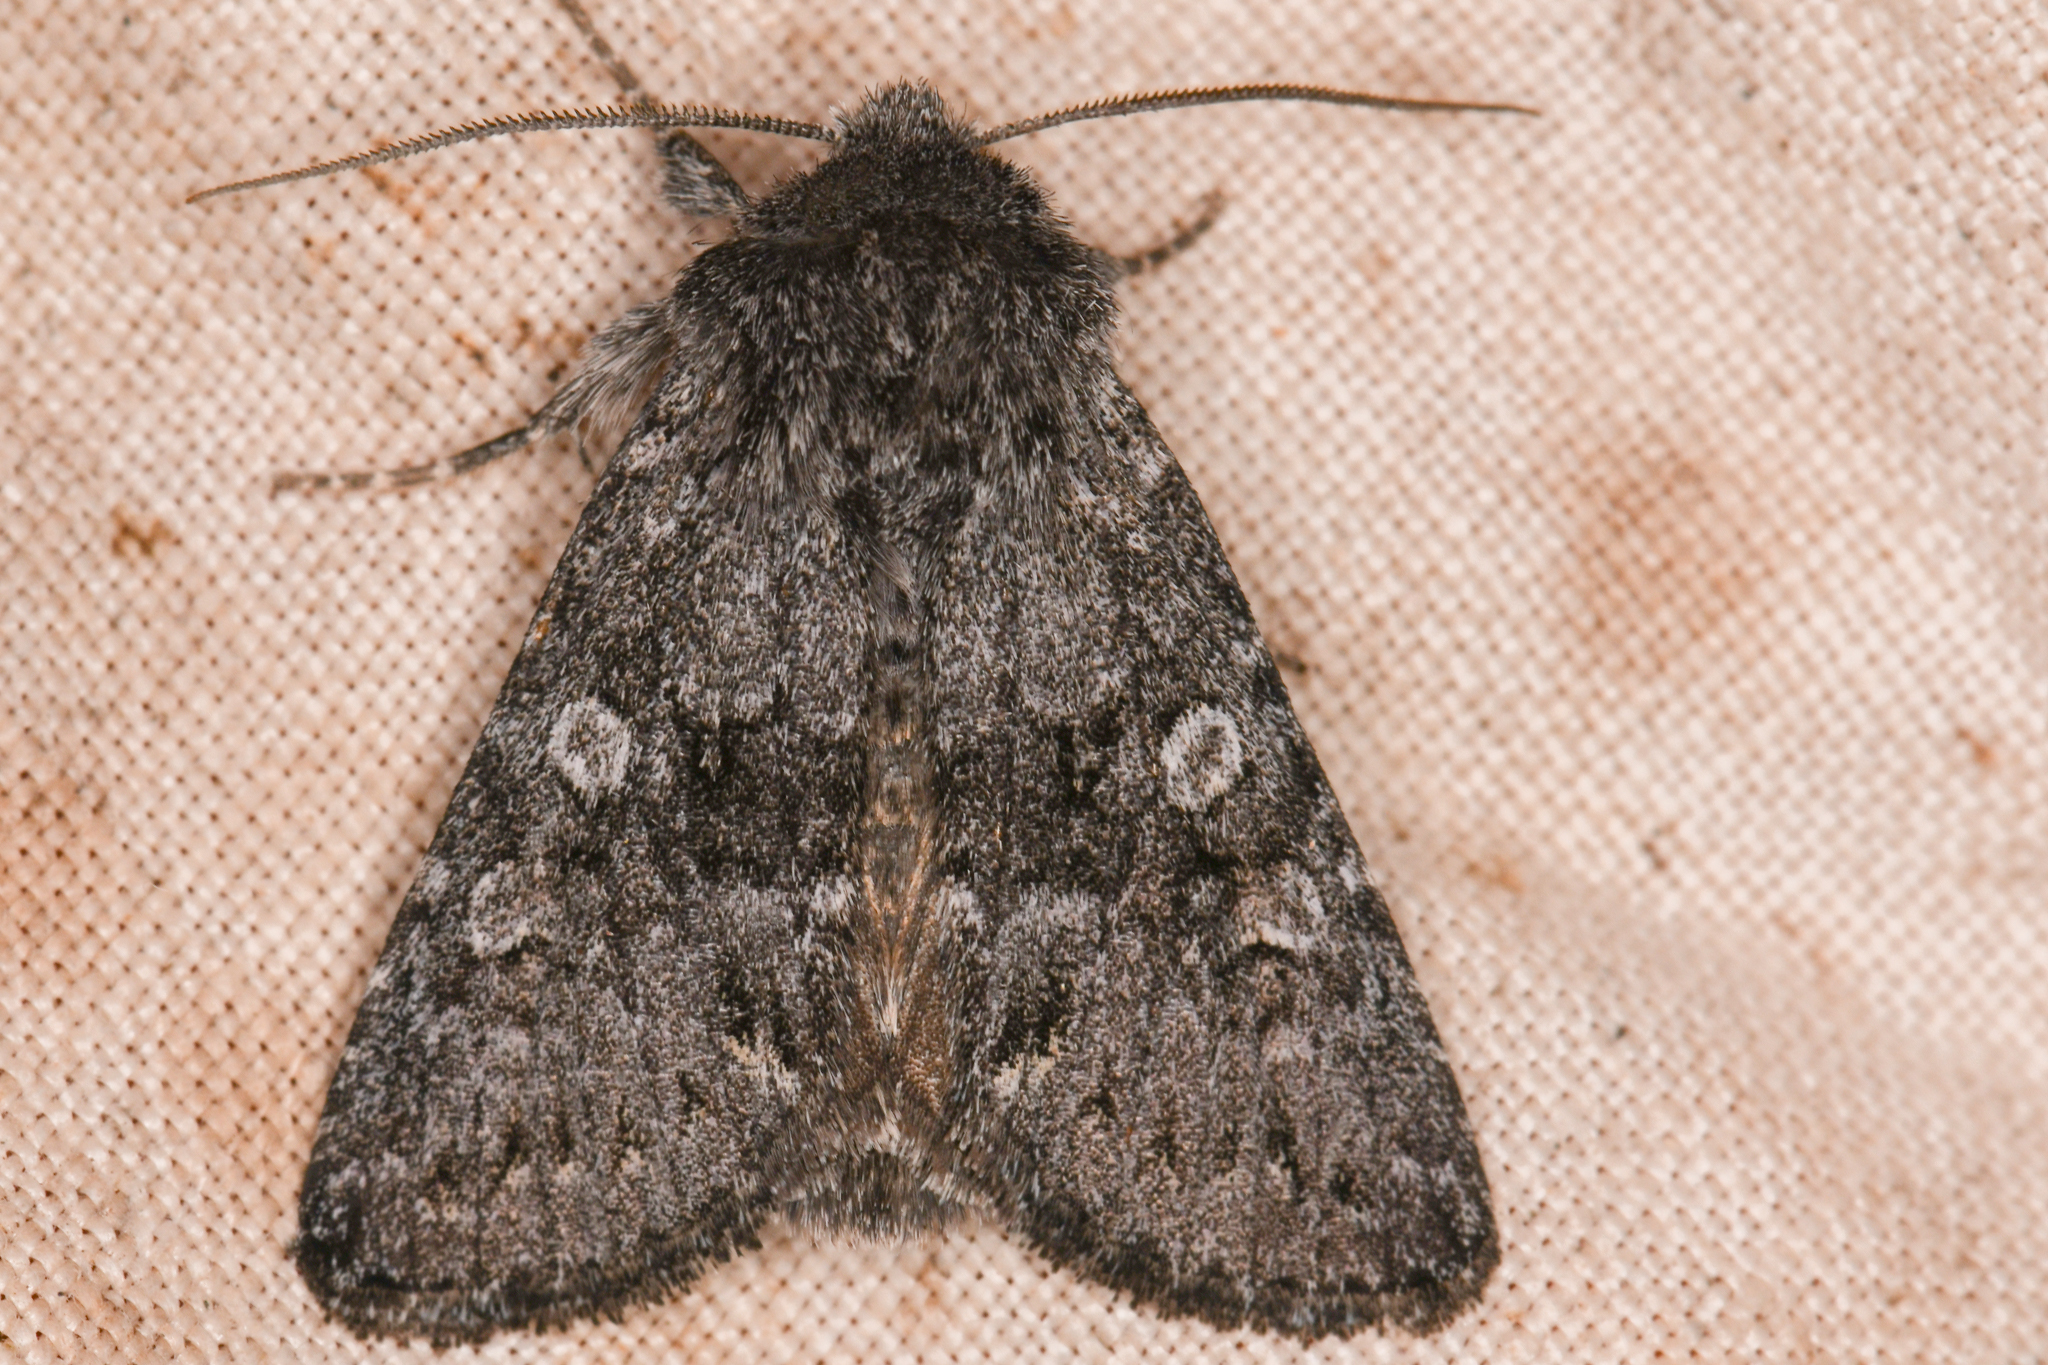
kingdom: Animalia
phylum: Arthropoda
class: Insecta
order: Lepidoptera
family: Noctuidae
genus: Lasionycta
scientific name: Lasionycta perplexa
